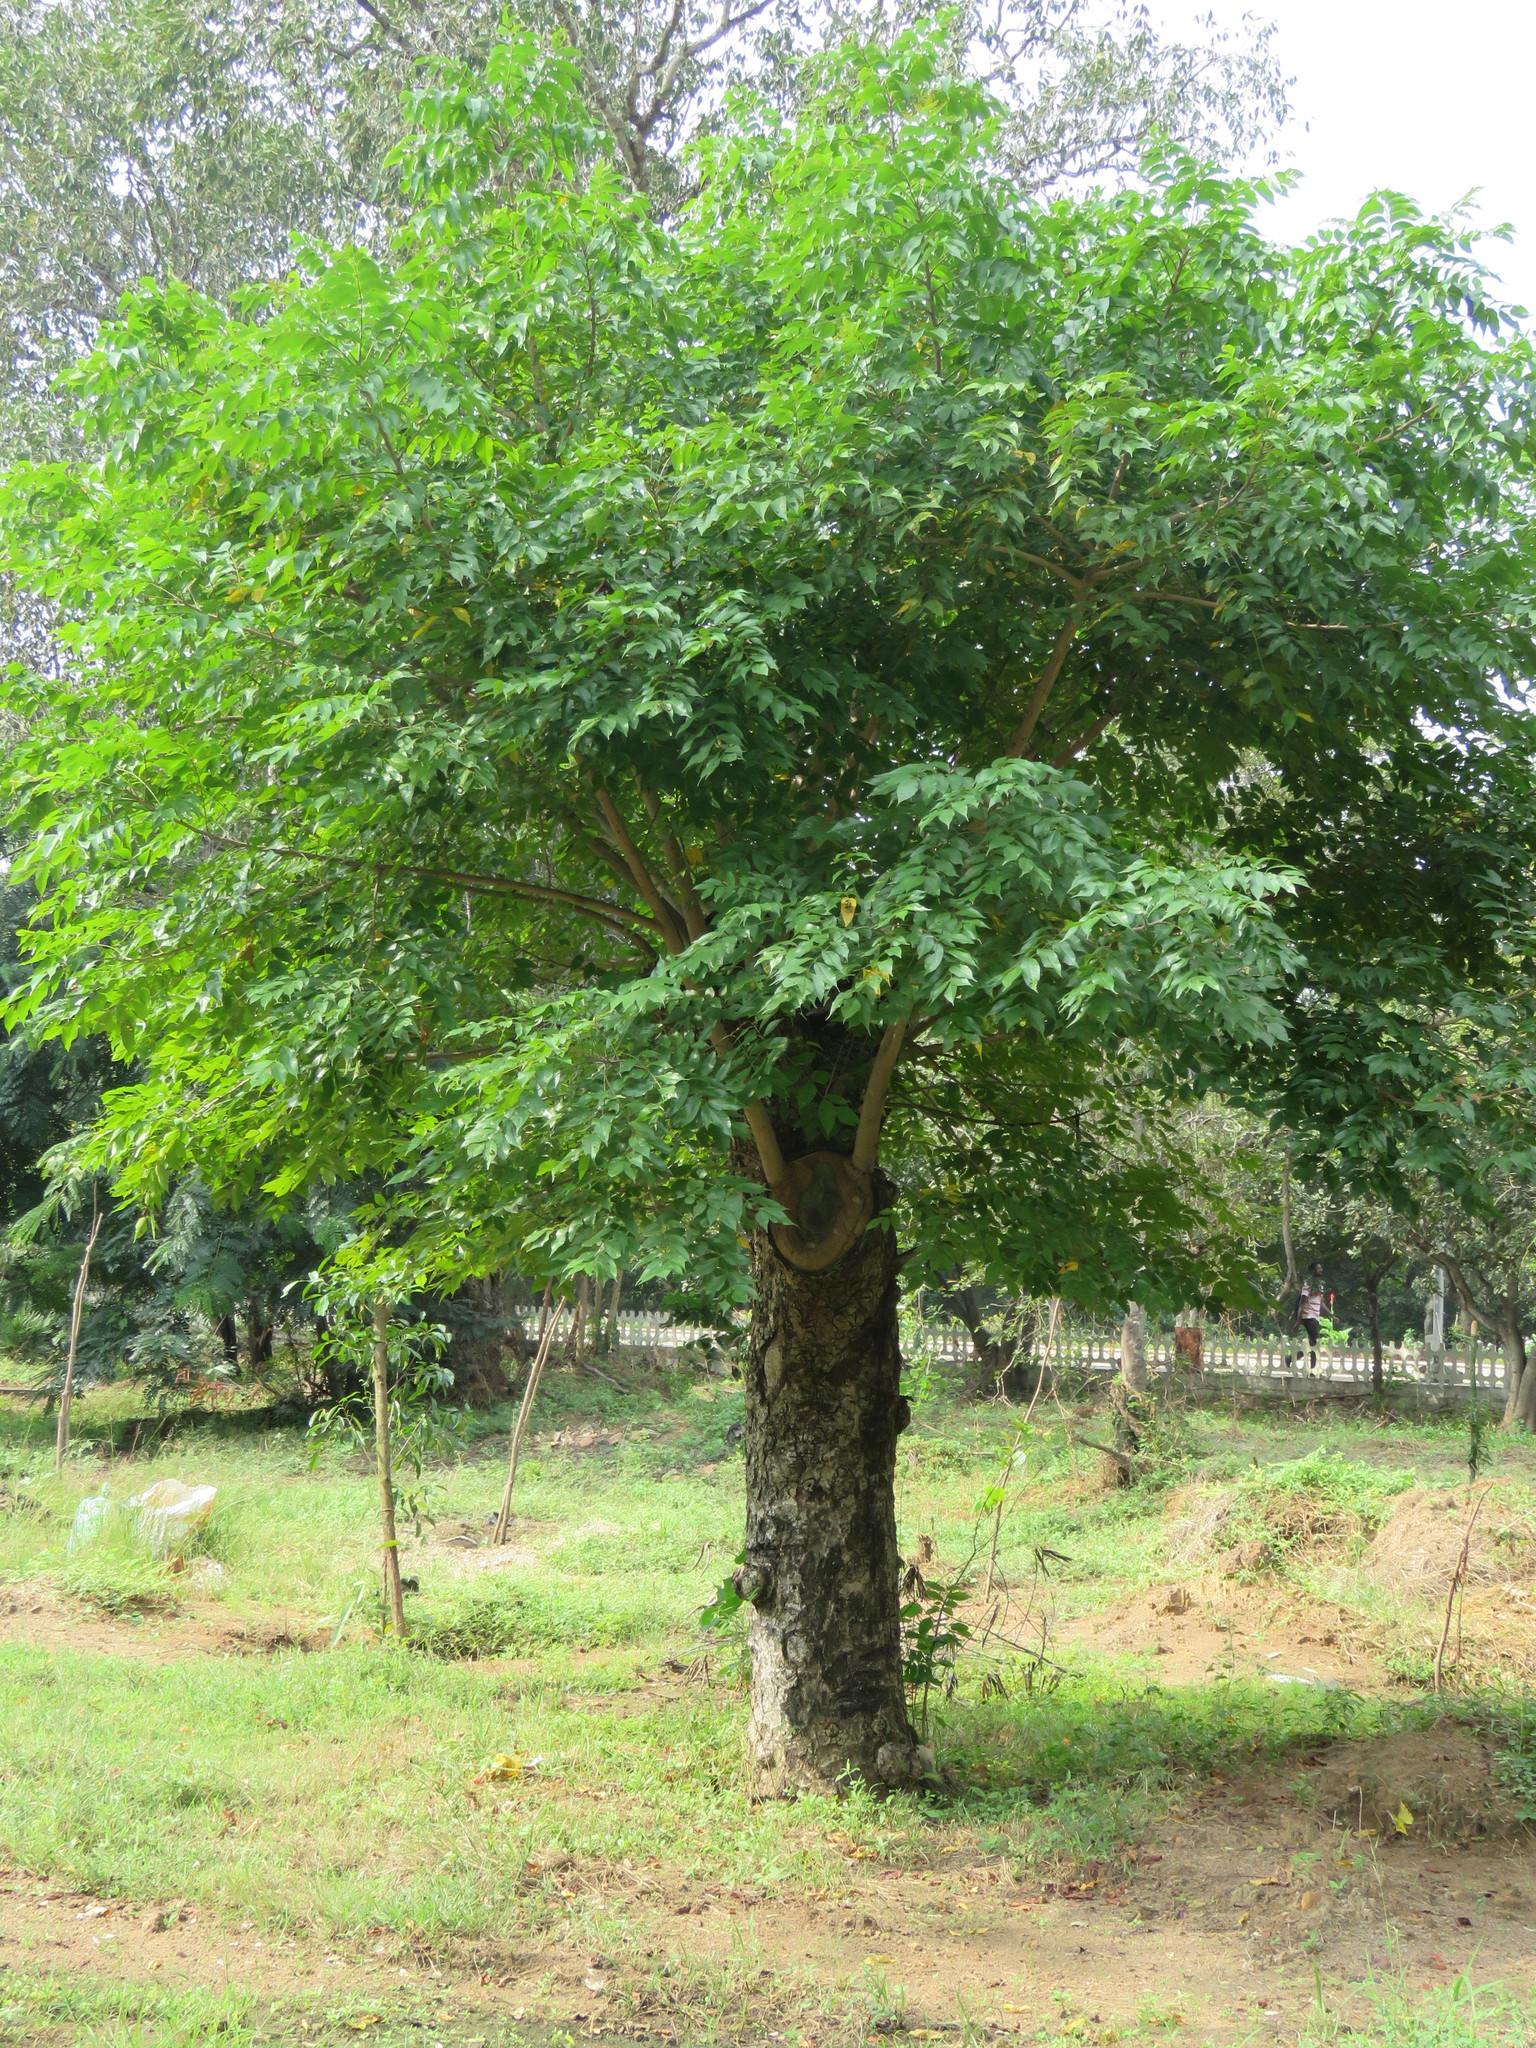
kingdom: Plantae
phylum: Tracheophyta
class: Magnoliopsida
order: Sapindales
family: Anacardiaceae
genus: Lannea
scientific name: Lannea coromandelica
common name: Indian ash tree
